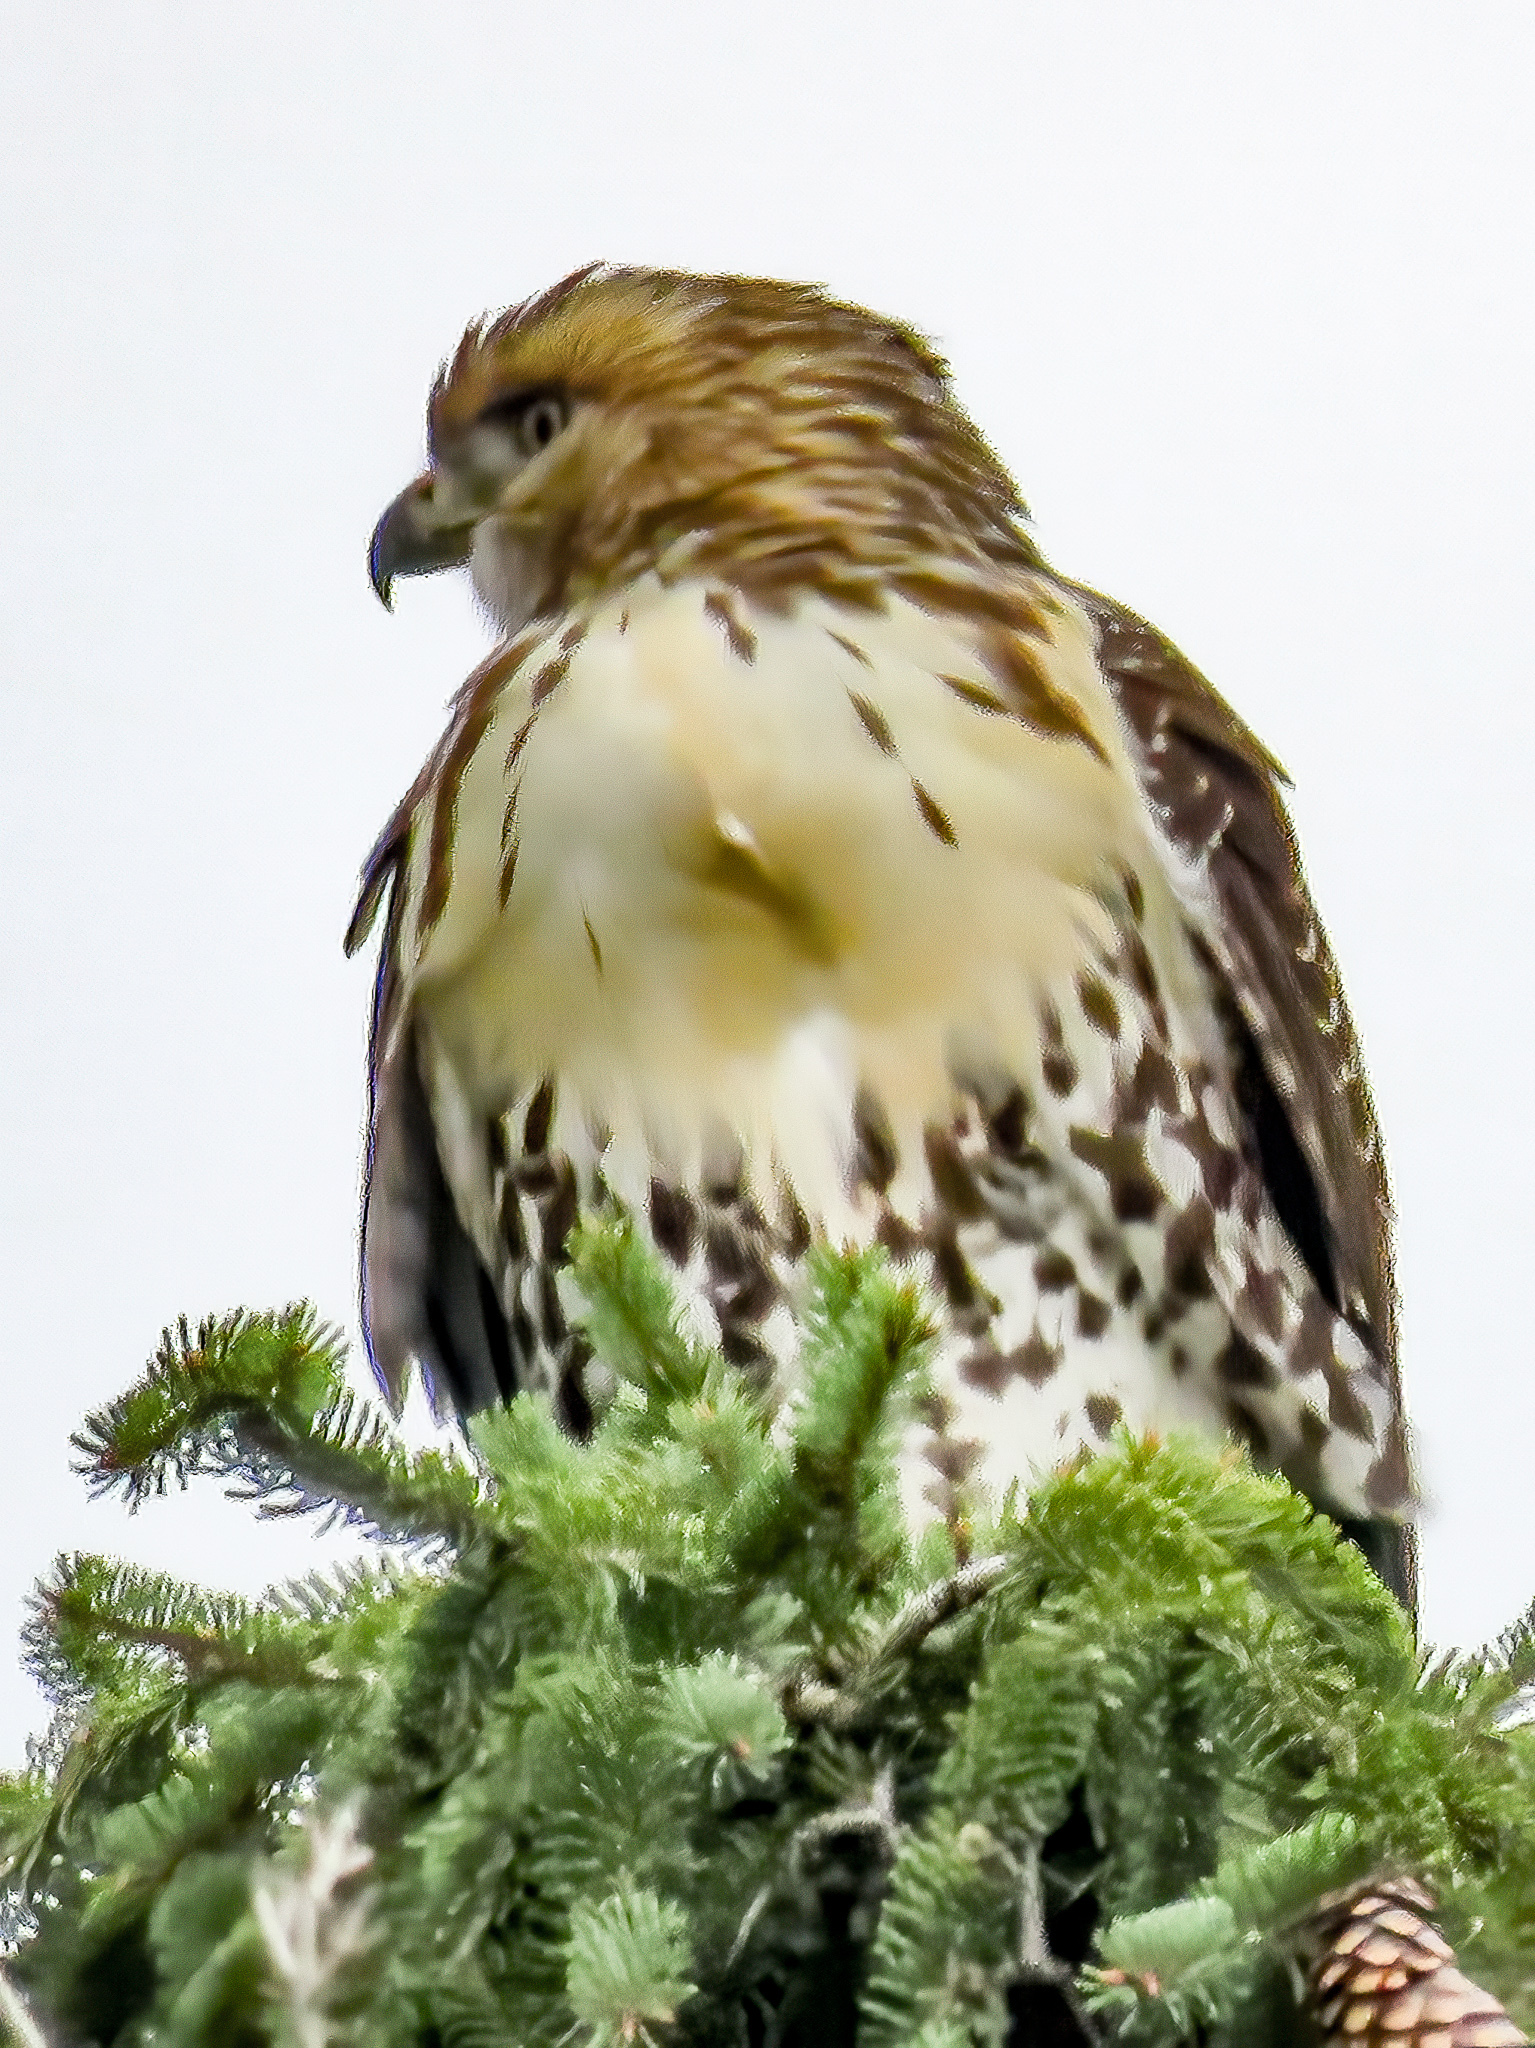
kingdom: Animalia
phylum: Chordata
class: Aves
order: Accipitriformes
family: Accipitridae
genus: Buteo
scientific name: Buteo jamaicensis
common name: Red-tailed hawk
